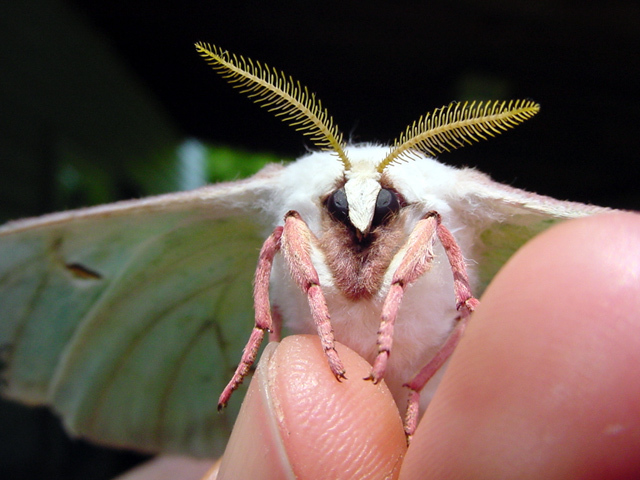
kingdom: Animalia
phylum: Arthropoda
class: Insecta
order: Lepidoptera
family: Saturniidae
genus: Actias
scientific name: Actias luna
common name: Luna moth
